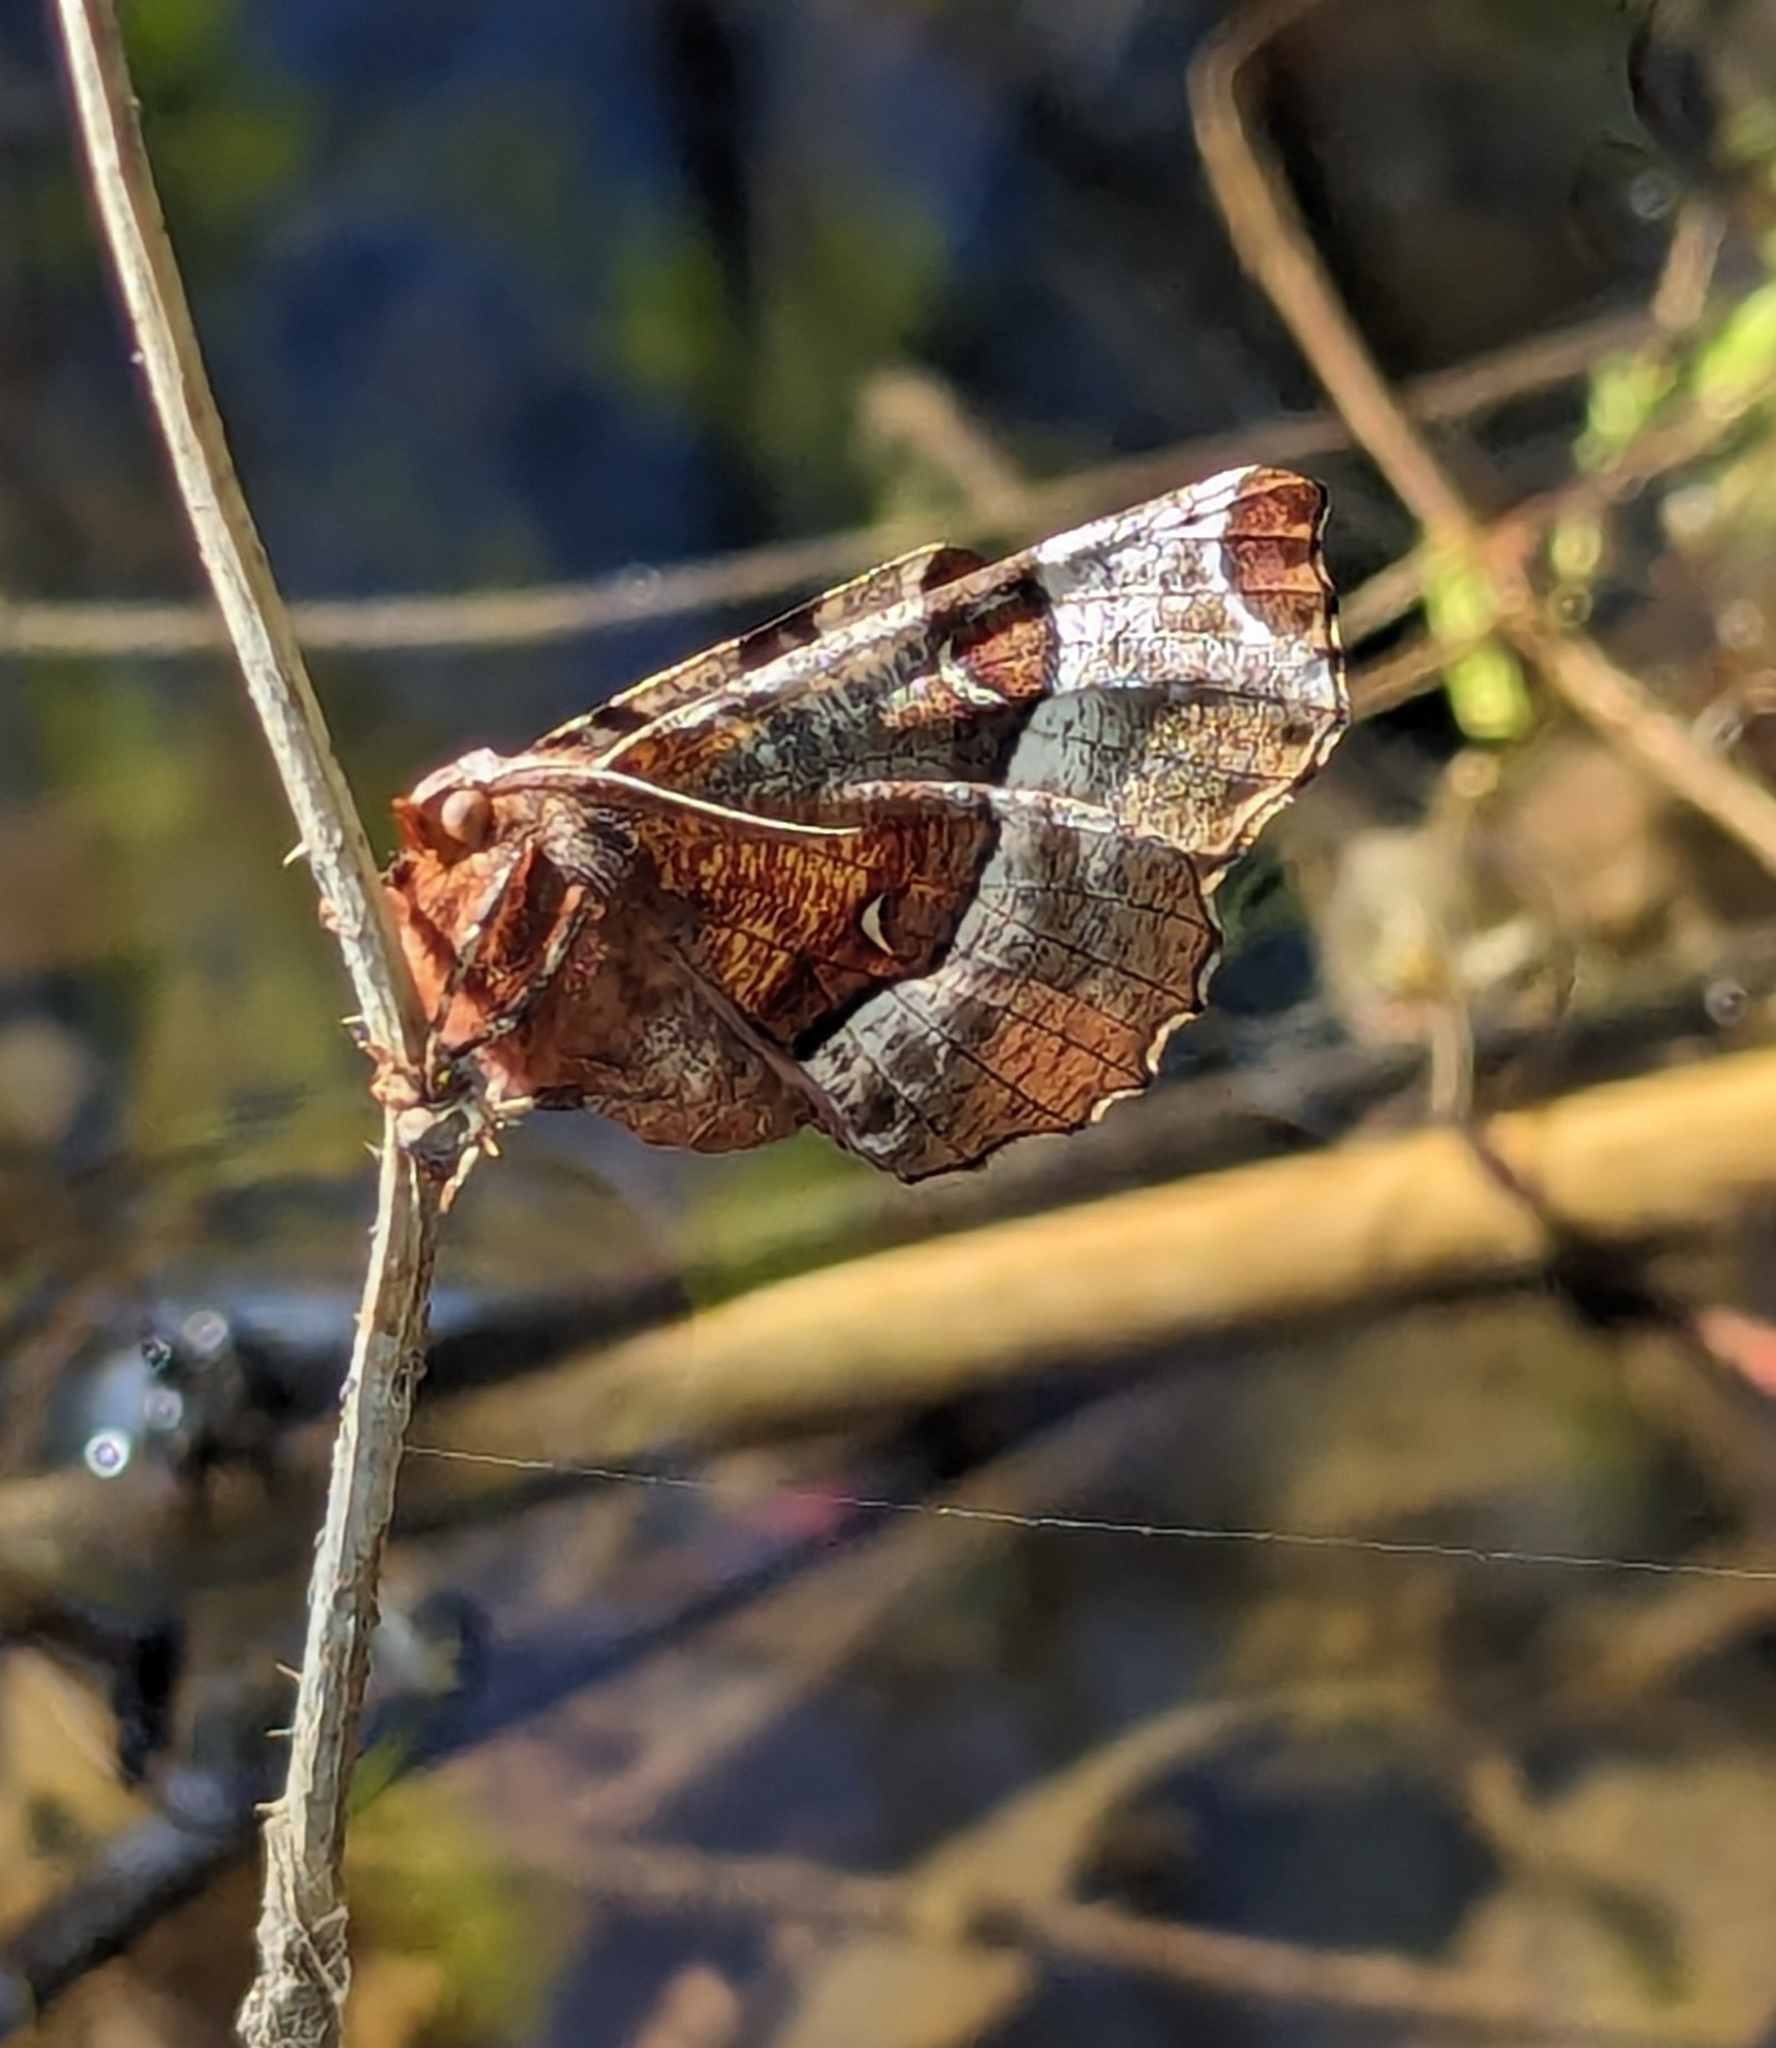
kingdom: Animalia
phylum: Arthropoda
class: Insecta
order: Lepidoptera
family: Geometridae
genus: Selenia
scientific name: Selenia tetralunaria
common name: Purple thorn
